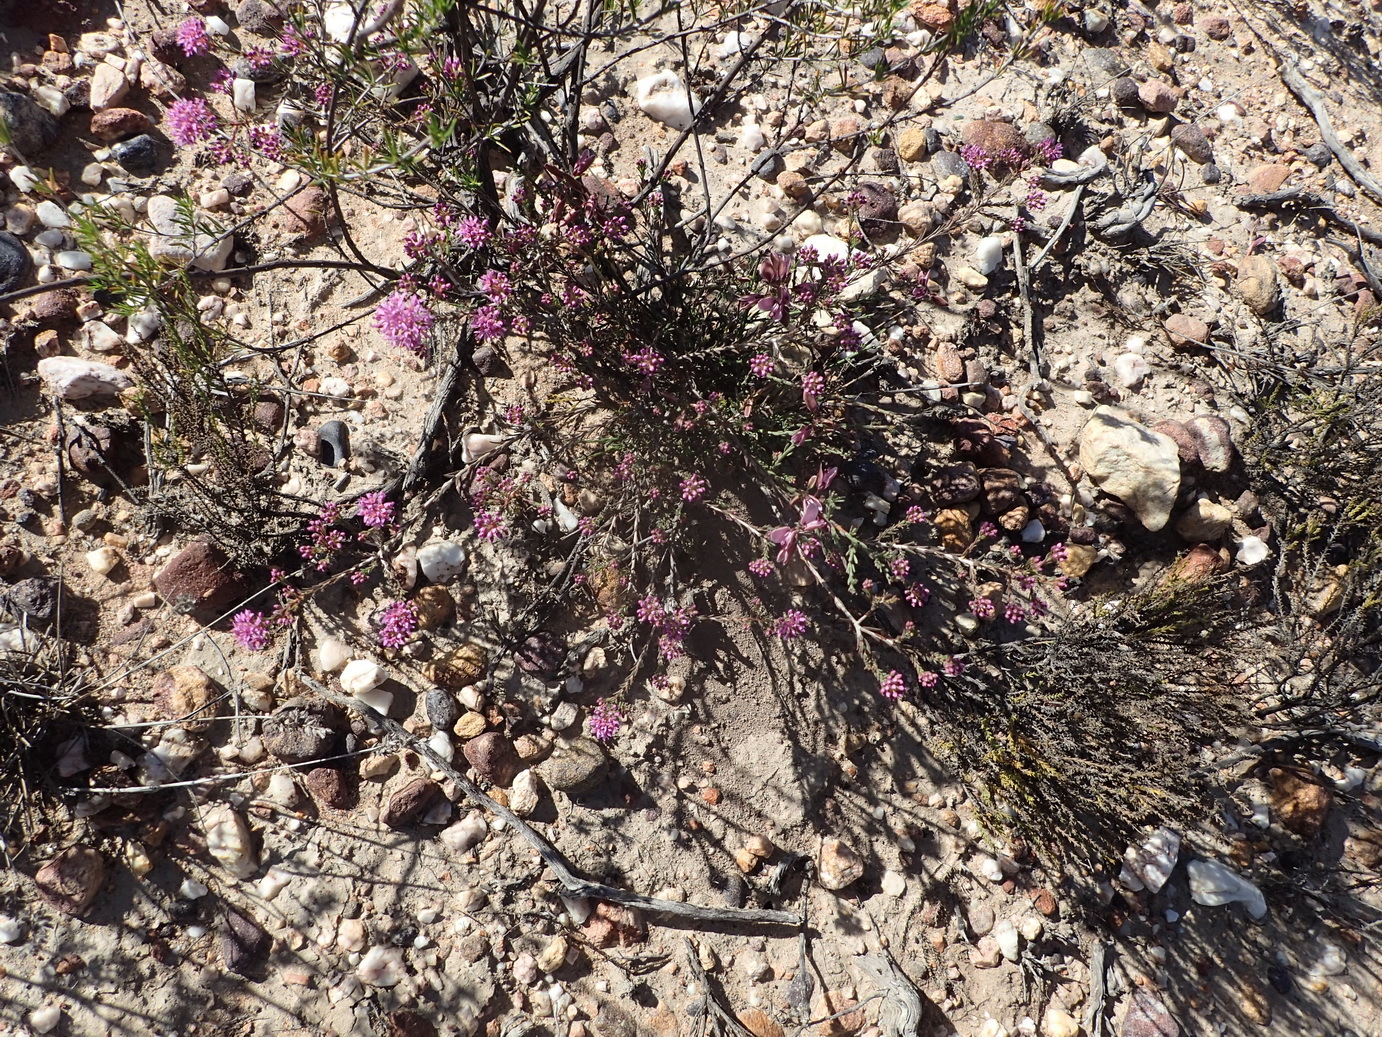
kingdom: Plantae
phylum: Tracheophyta
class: Magnoliopsida
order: Sapindales
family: Rutaceae
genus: Agathosma
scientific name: Agathosma
